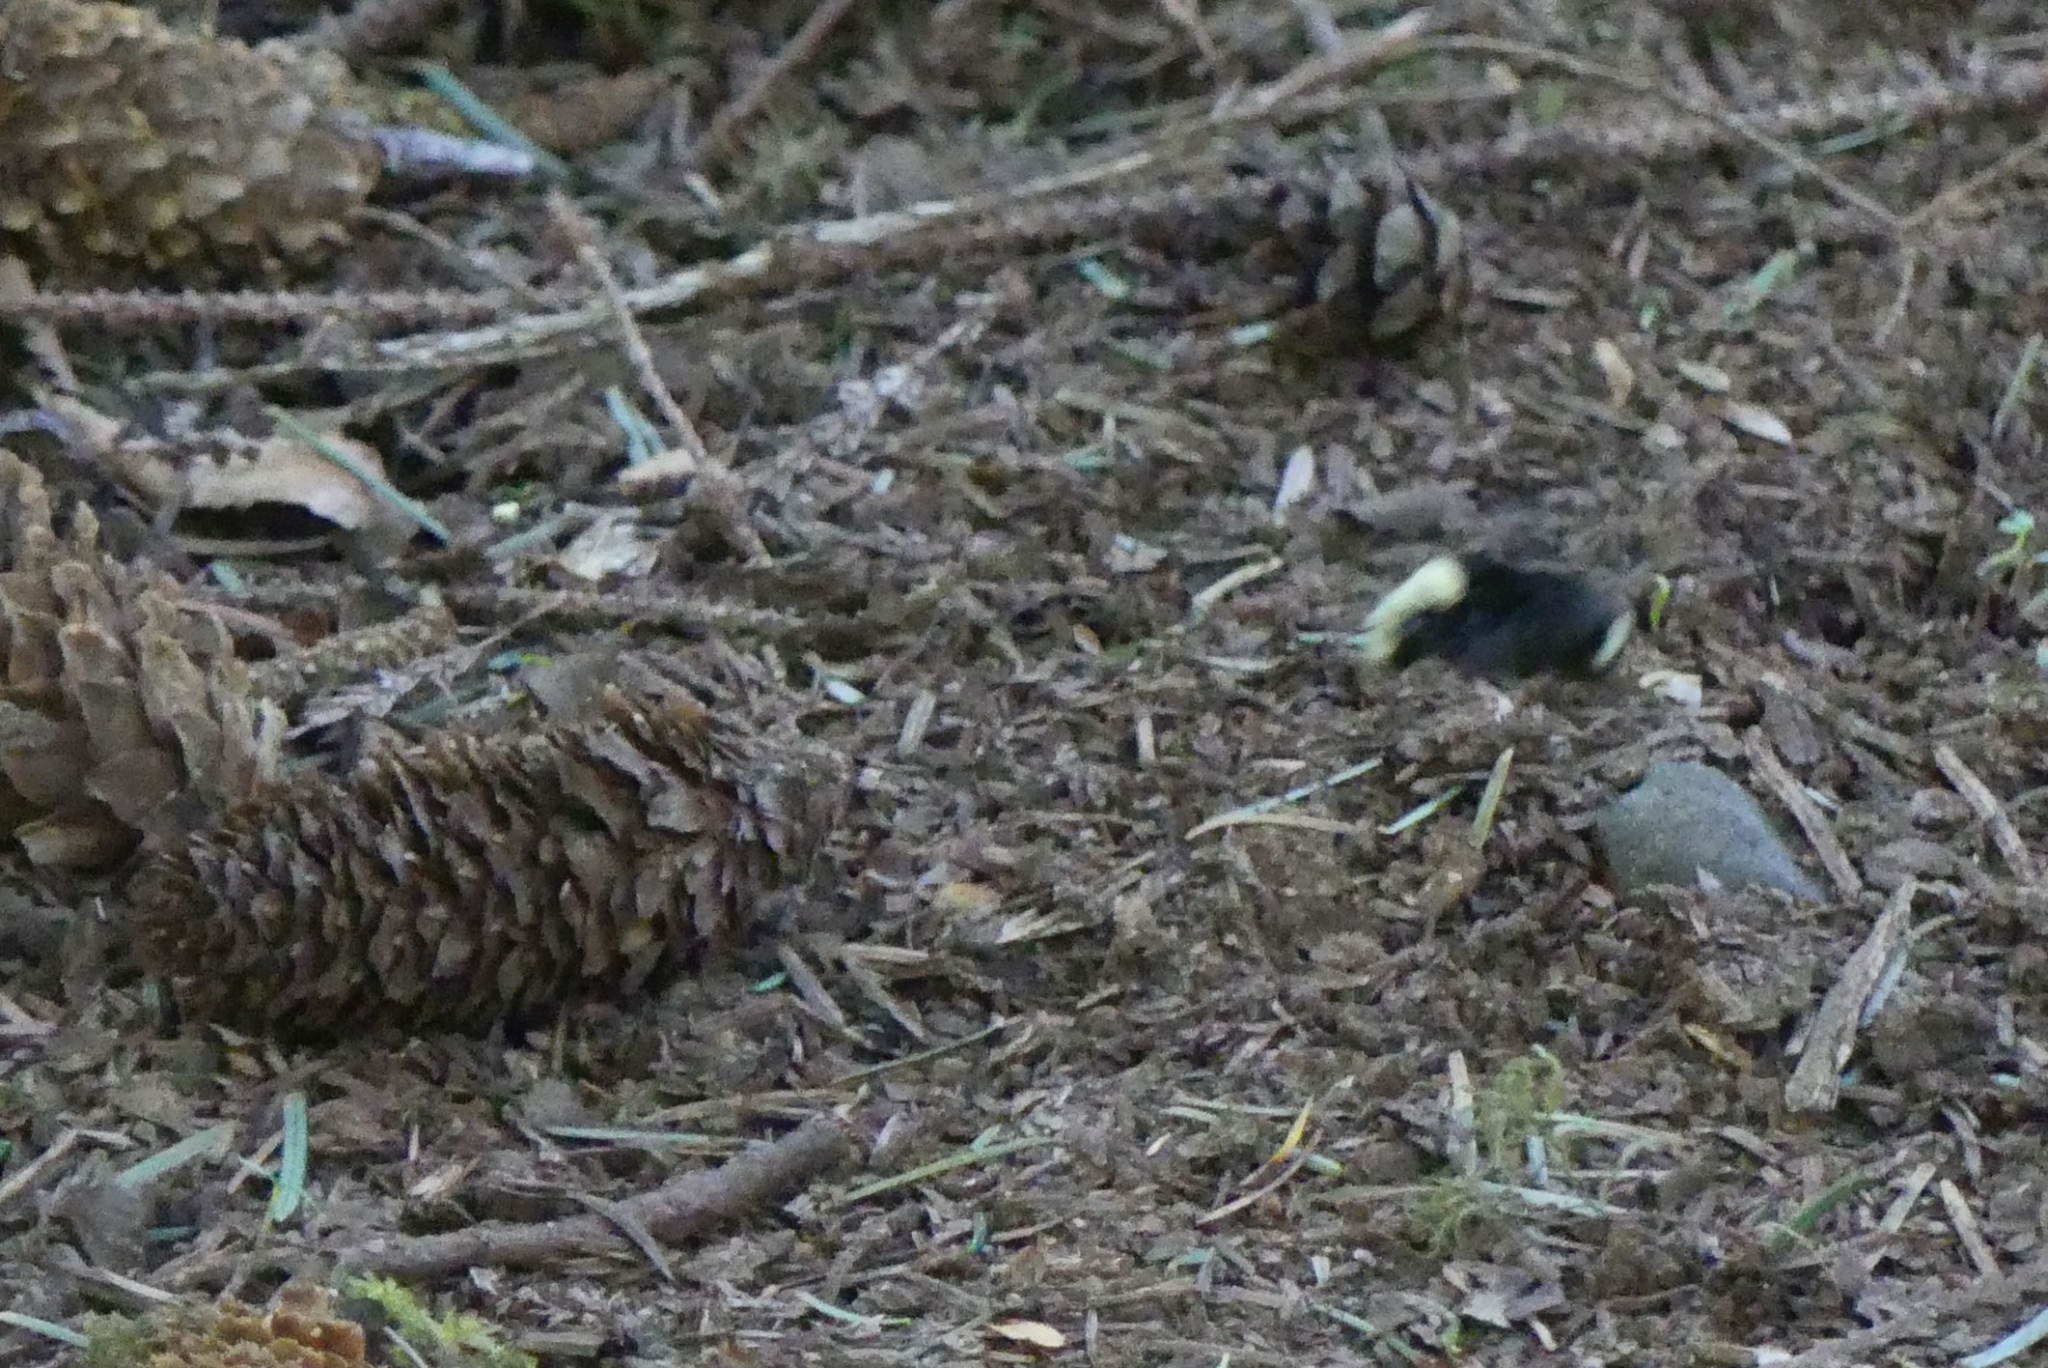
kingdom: Animalia
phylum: Arthropoda
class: Insecta
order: Hymenoptera
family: Apidae
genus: Bombus
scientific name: Bombus vosnesenskii
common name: Vosnesensky bumble bee
